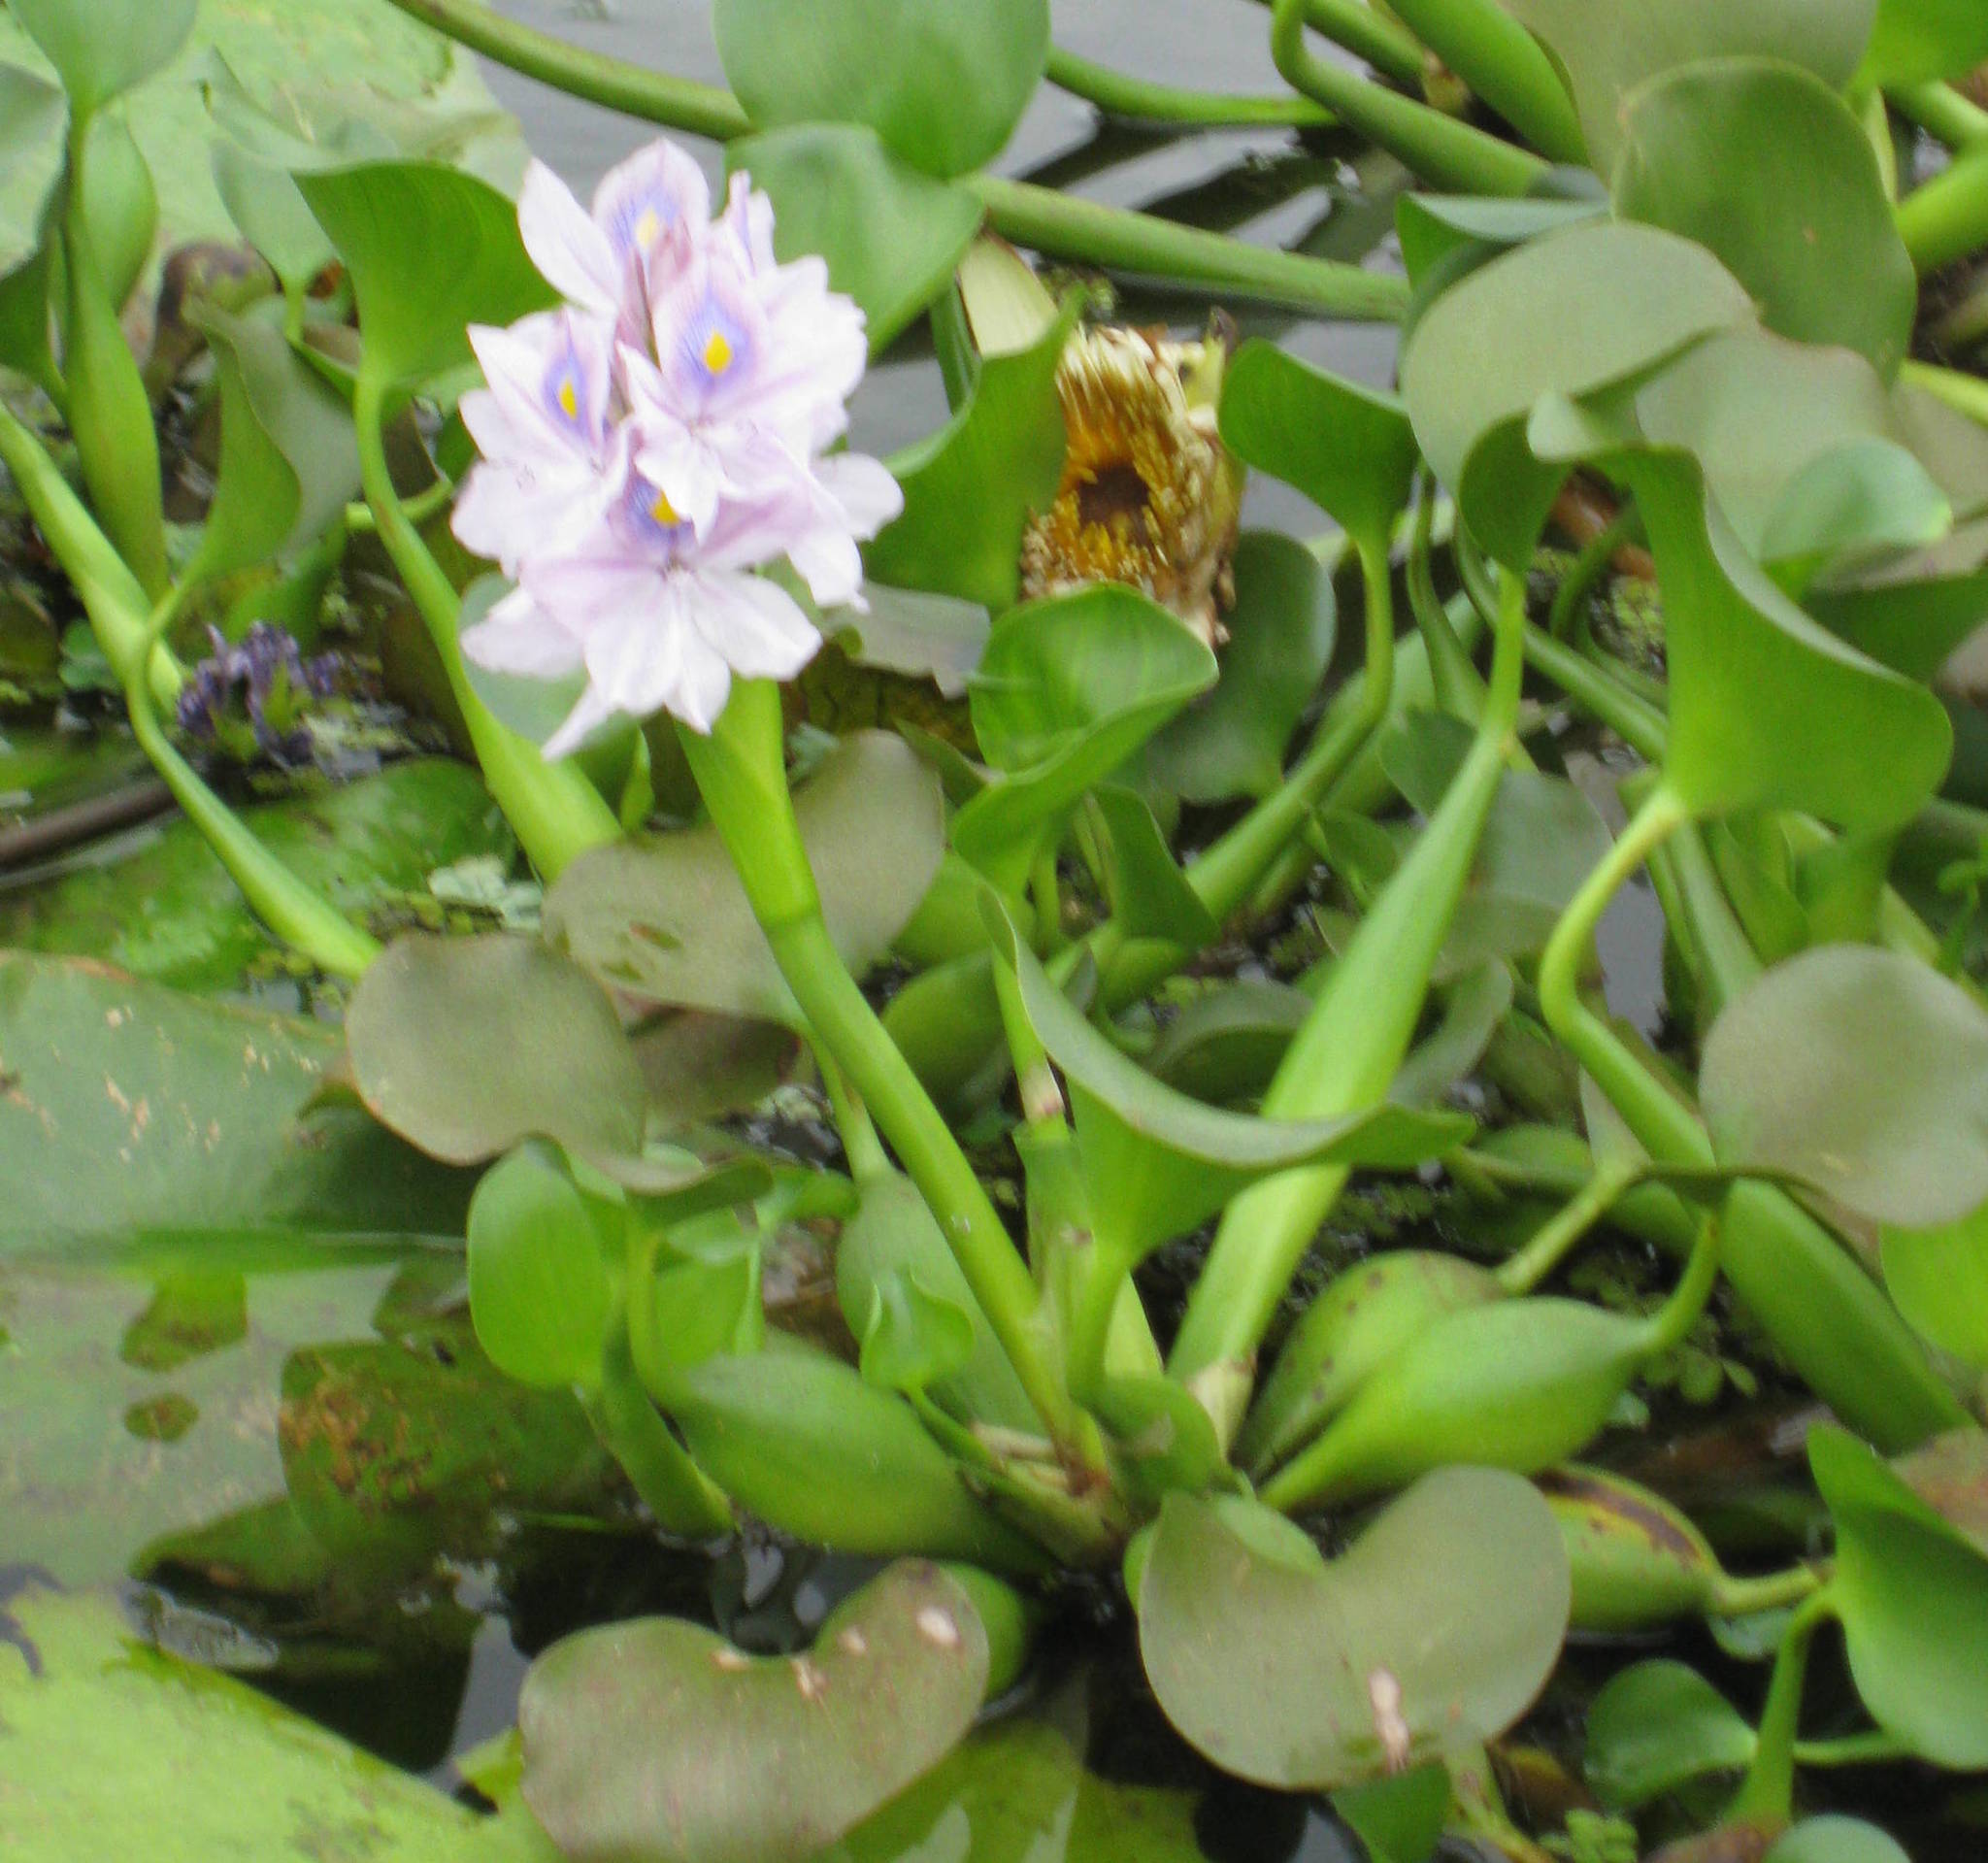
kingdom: Plantae
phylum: Tracheophyta
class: Liliopsida
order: Commelinales
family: Pontederiaceae
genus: Pontederia
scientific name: Pontederia crassipes
